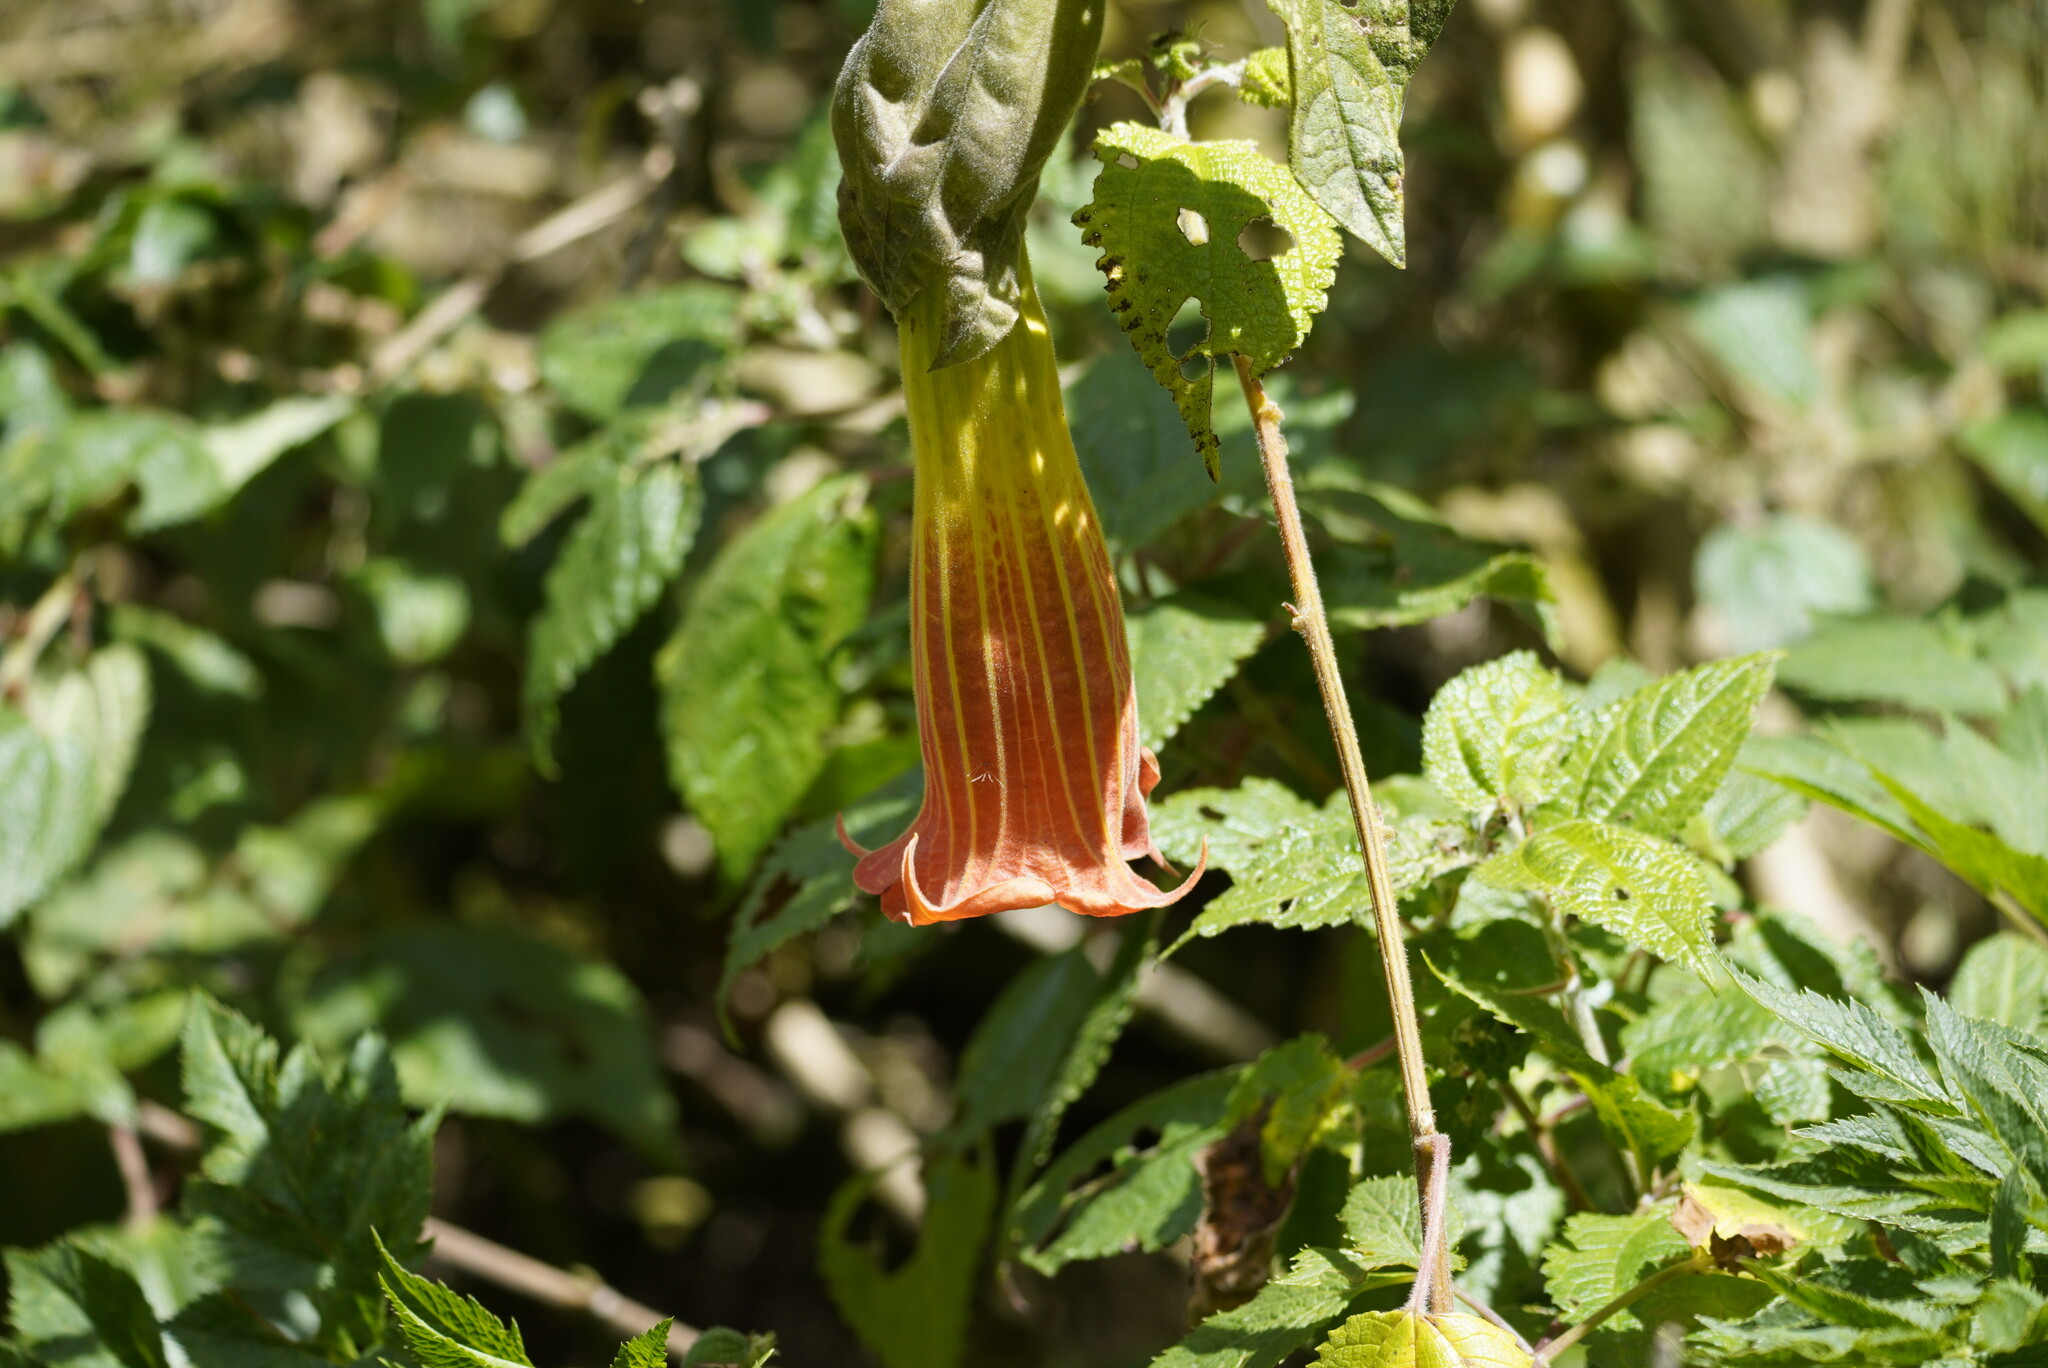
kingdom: Plantae
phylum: Tracheophyta
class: Magnoliopsida
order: Solanales
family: Solanaceae
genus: Brugmansia
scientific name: Brugmansia sanguinea
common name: Red floripontio
